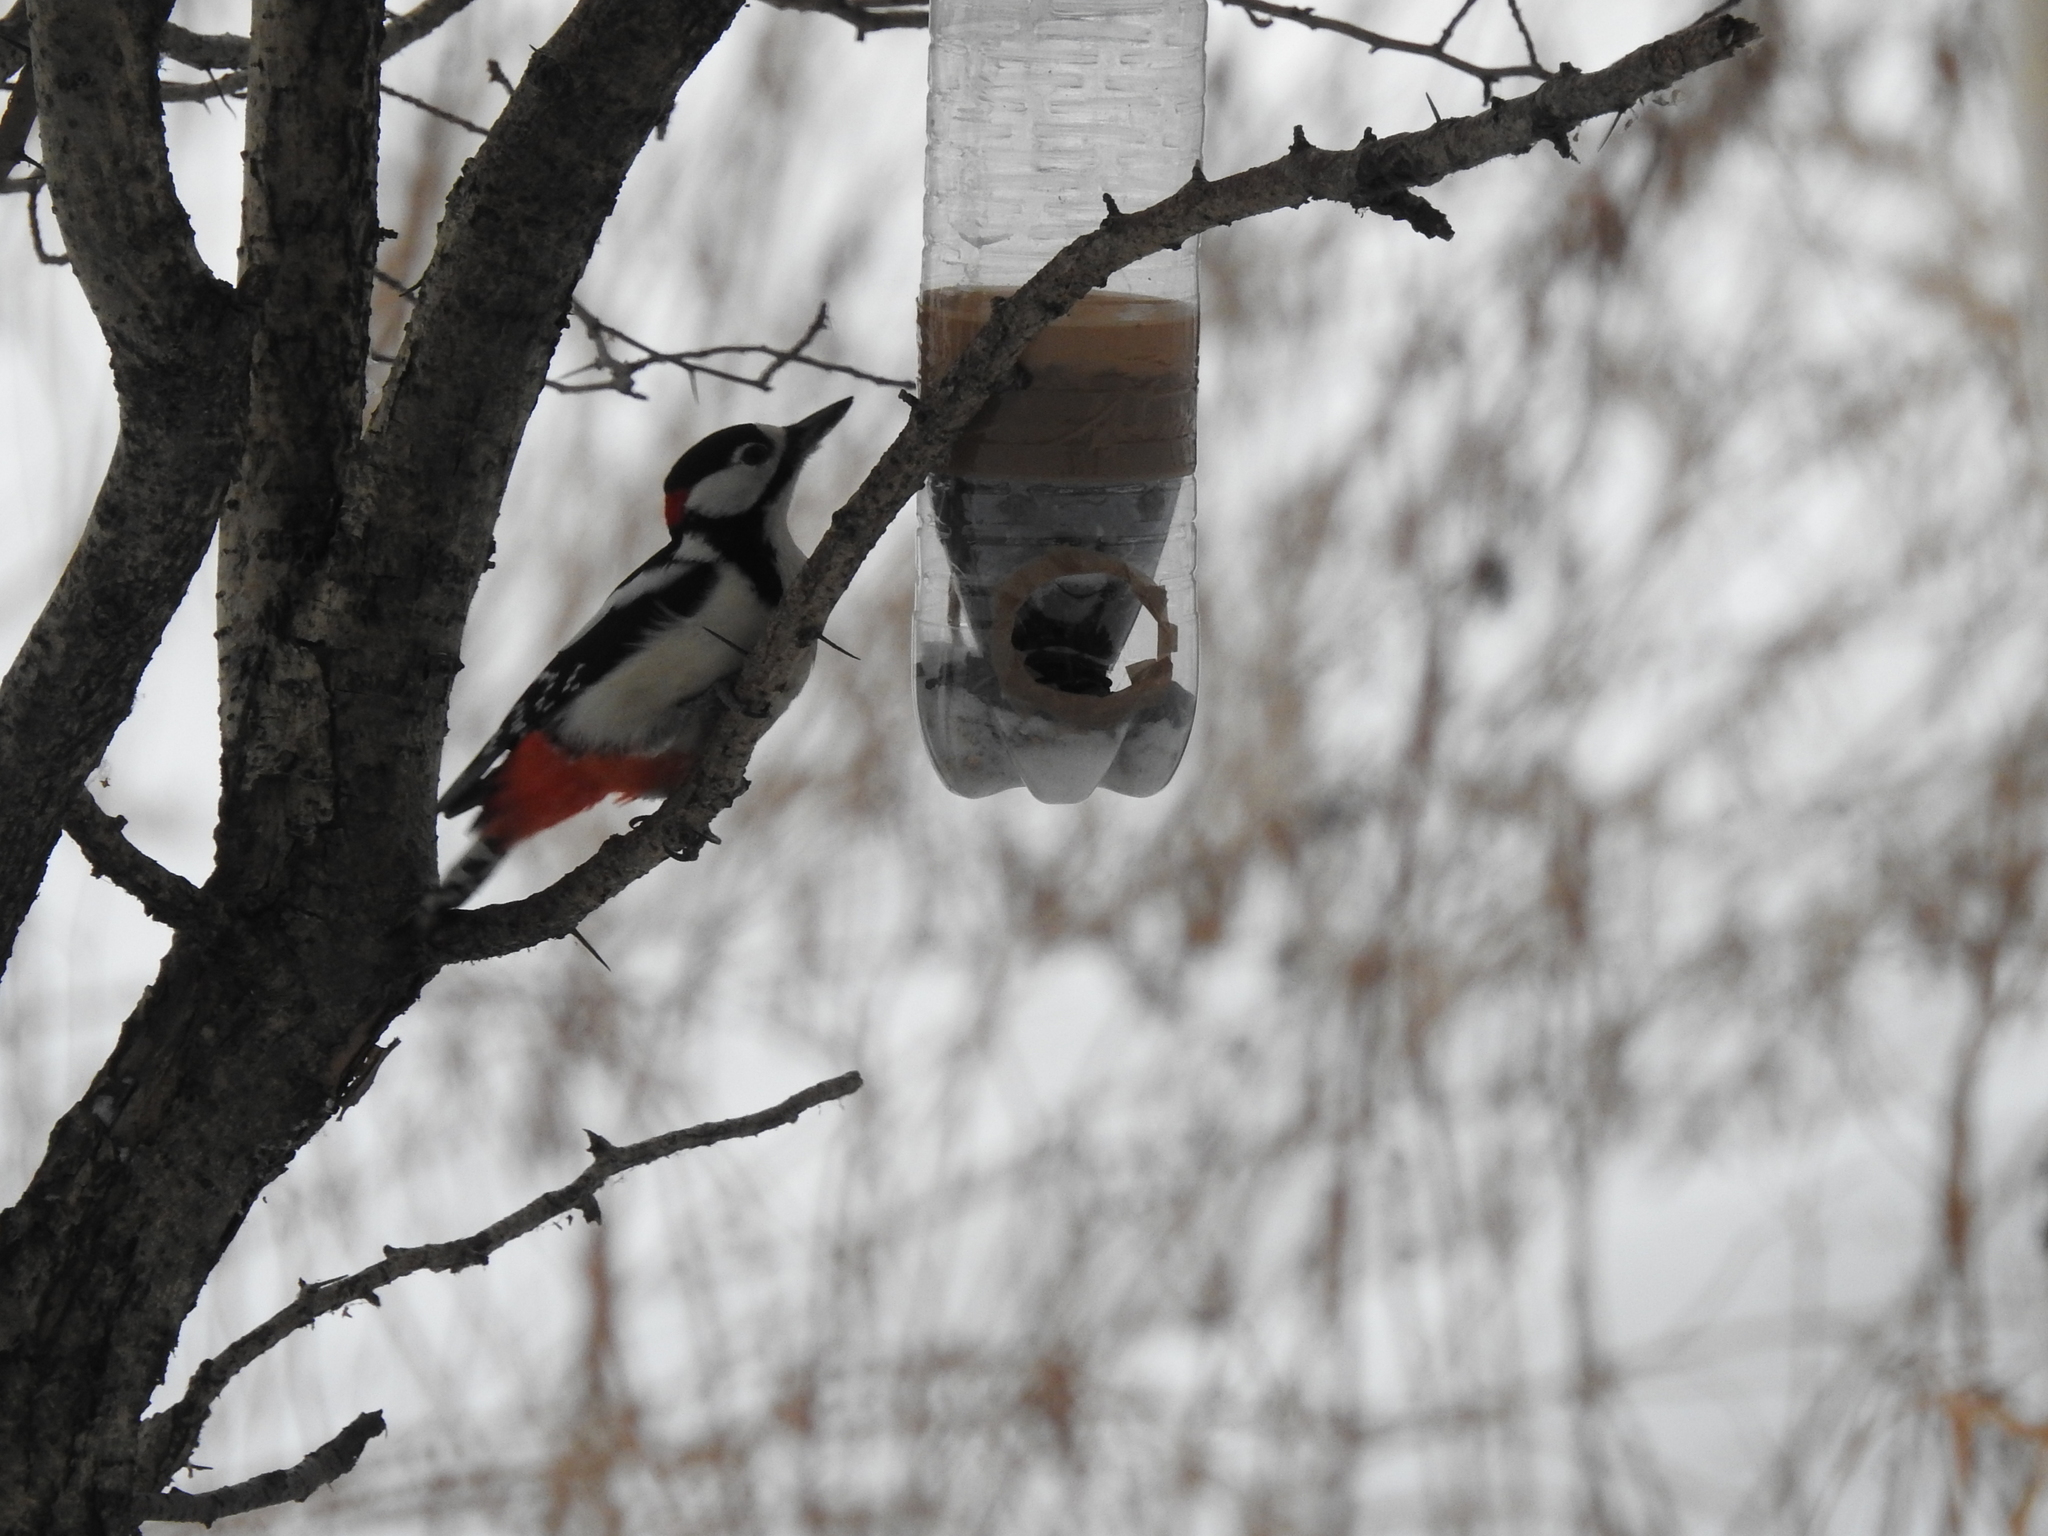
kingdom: Animalia
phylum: Chordata
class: Aves
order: Piciformes
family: Picidae
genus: Dendrocopos
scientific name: Dendrocopos major
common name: Great spotted woodpecker
